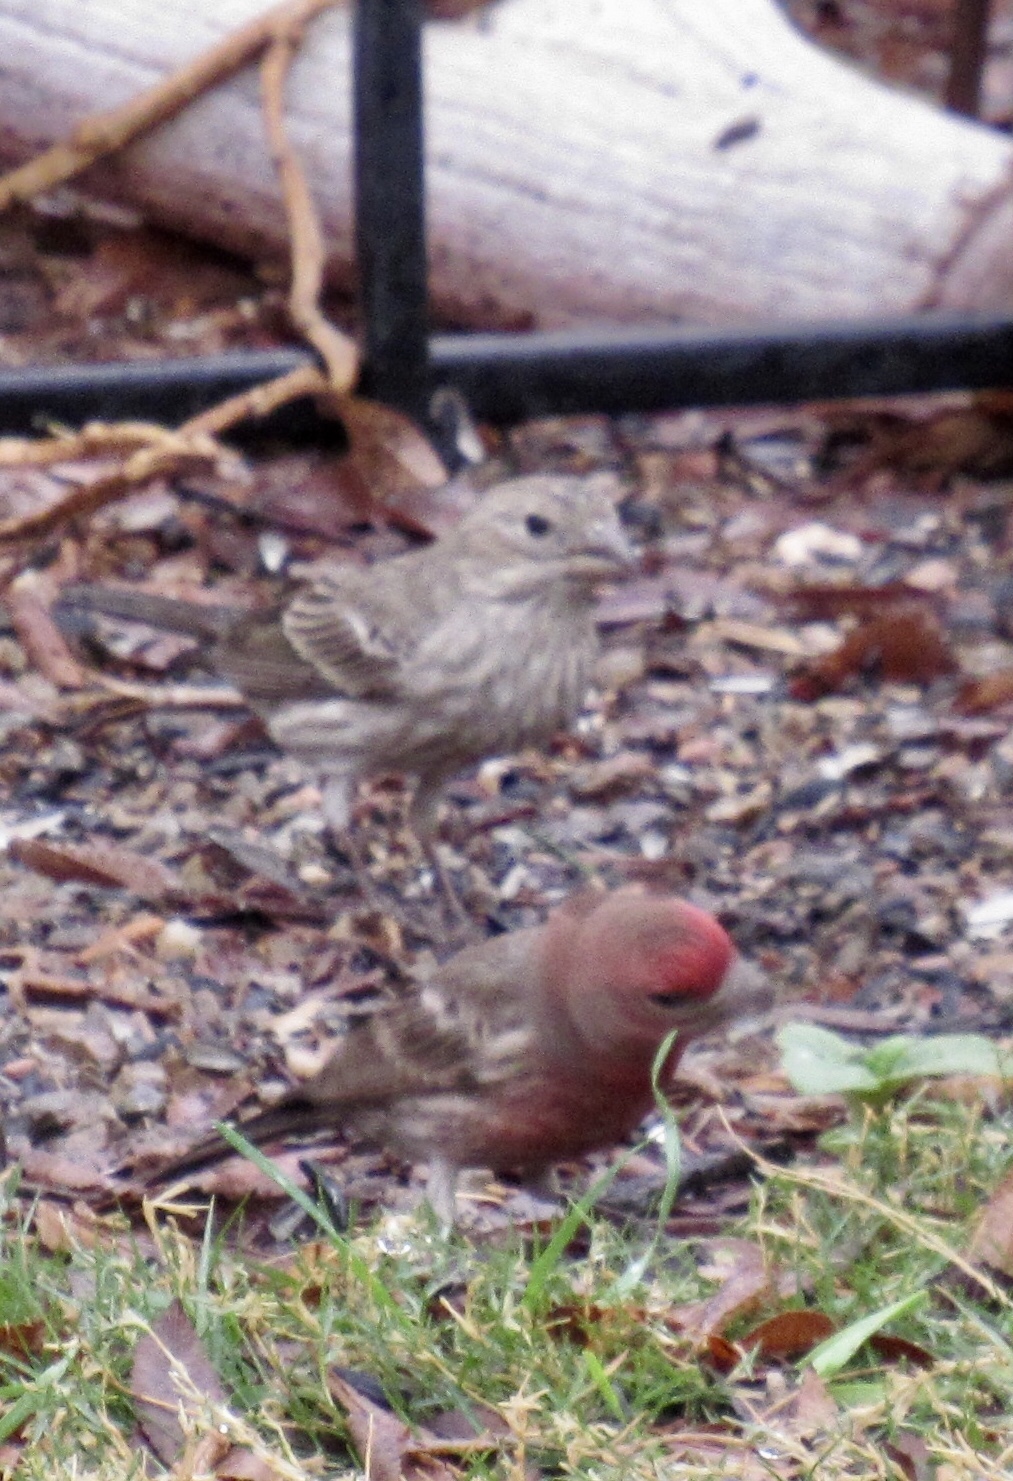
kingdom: Animalia
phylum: Chordata
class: Aves
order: Passeriformes
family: Fringillidae
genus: Haemorhous
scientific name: Haemorhous mexicanus
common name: House finch
